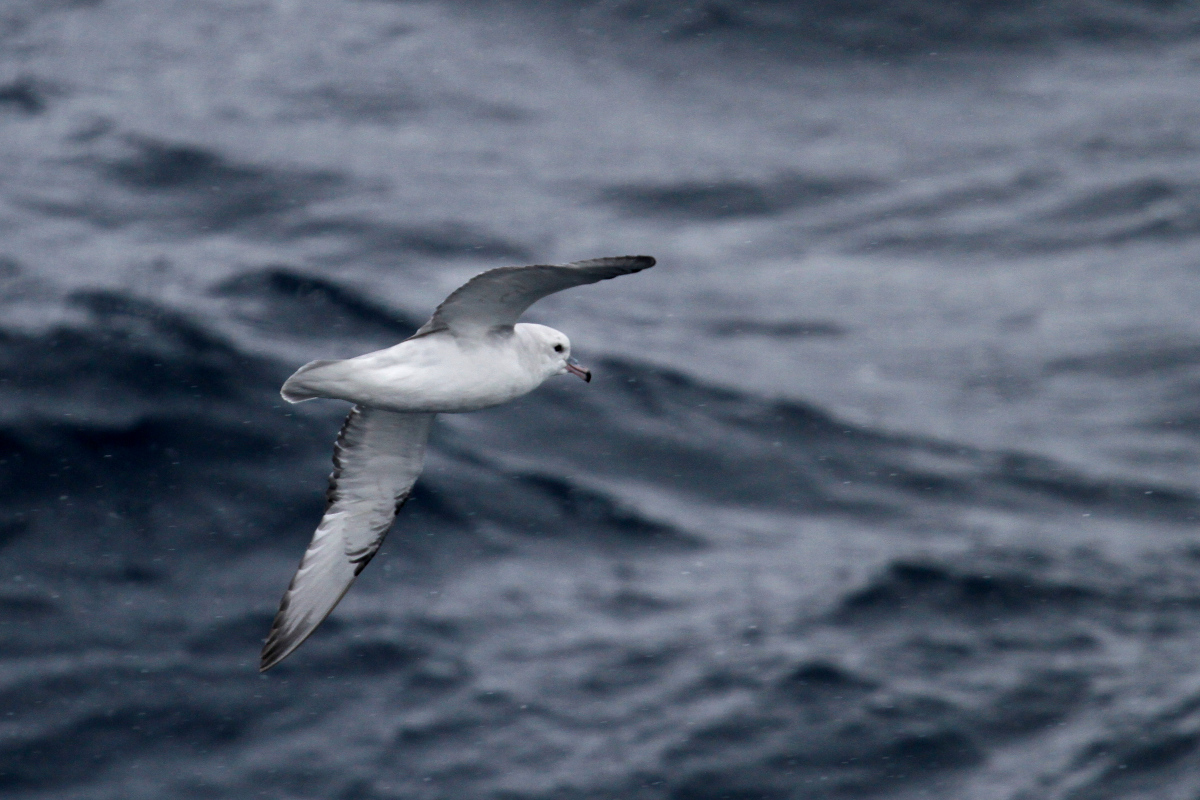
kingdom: Animalia
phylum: Chordata
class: Aves
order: Procellariiformes
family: Procellariidae
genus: Fulmarus
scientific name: Fulmarus glacialoides
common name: Southern fulmar
